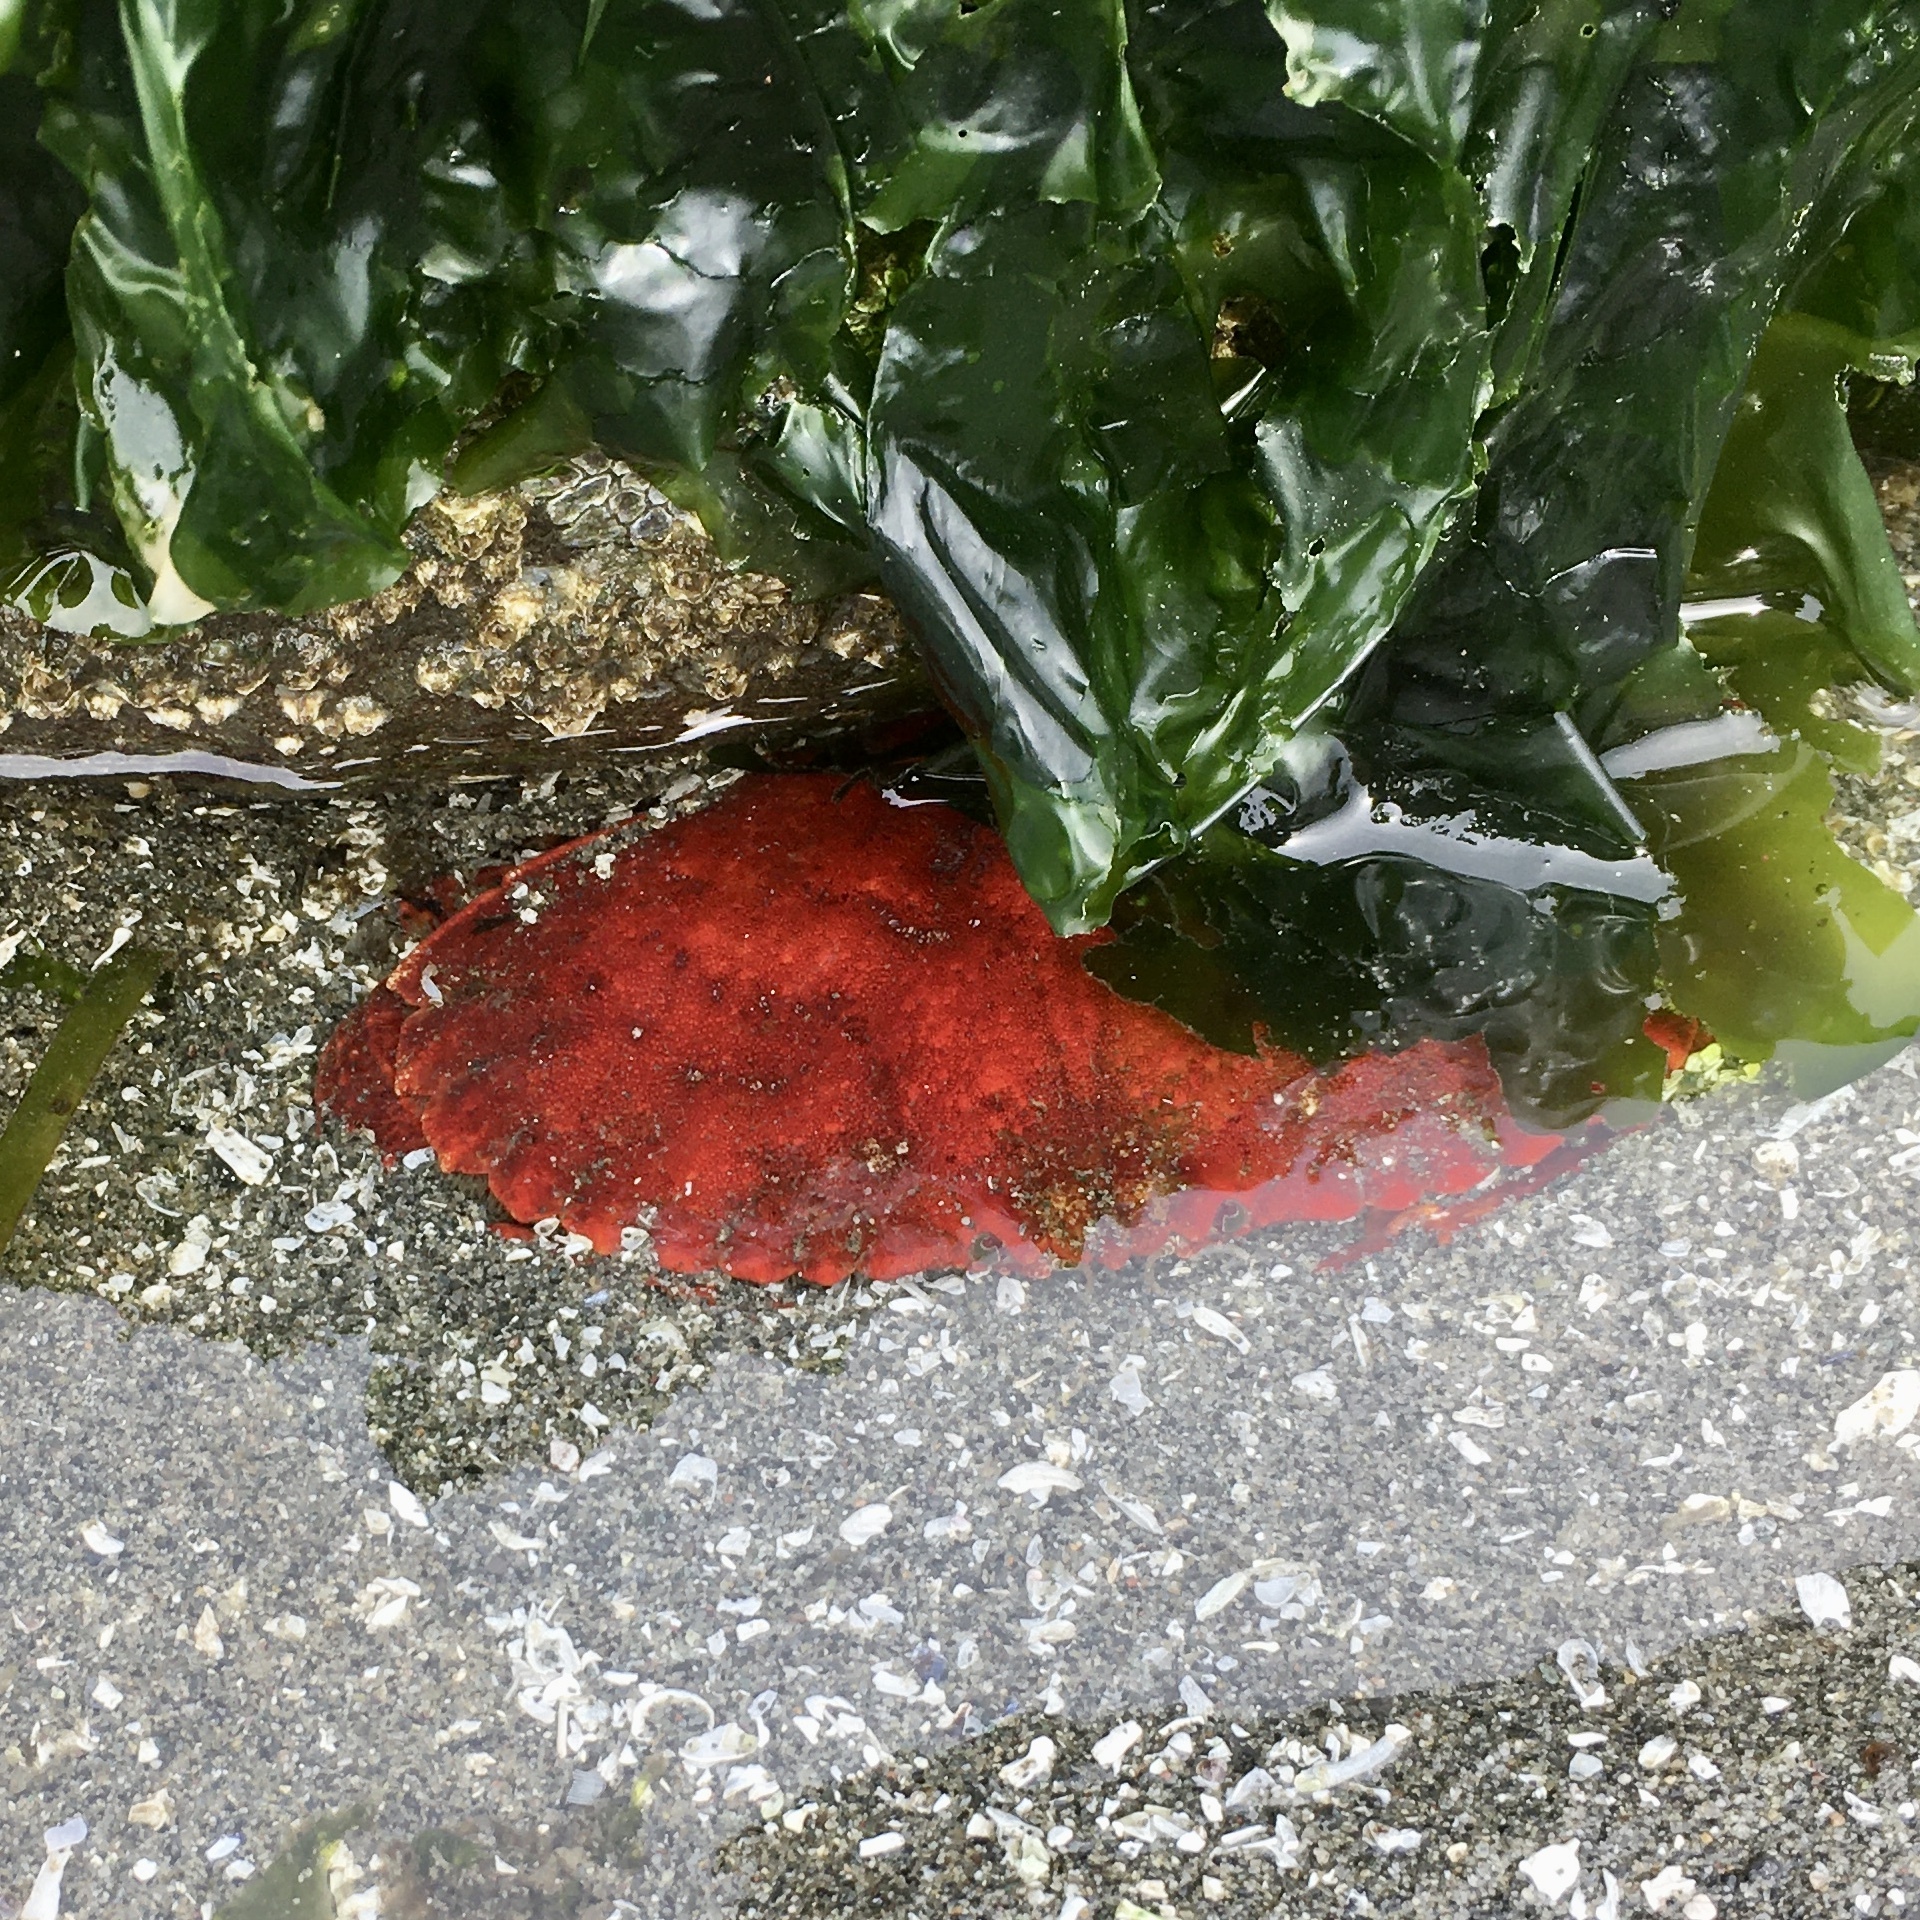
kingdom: Animalia
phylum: Arthropoda
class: Malacostraca
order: Decapoda
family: Cancridae
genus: Cancer
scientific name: Cancer productus
